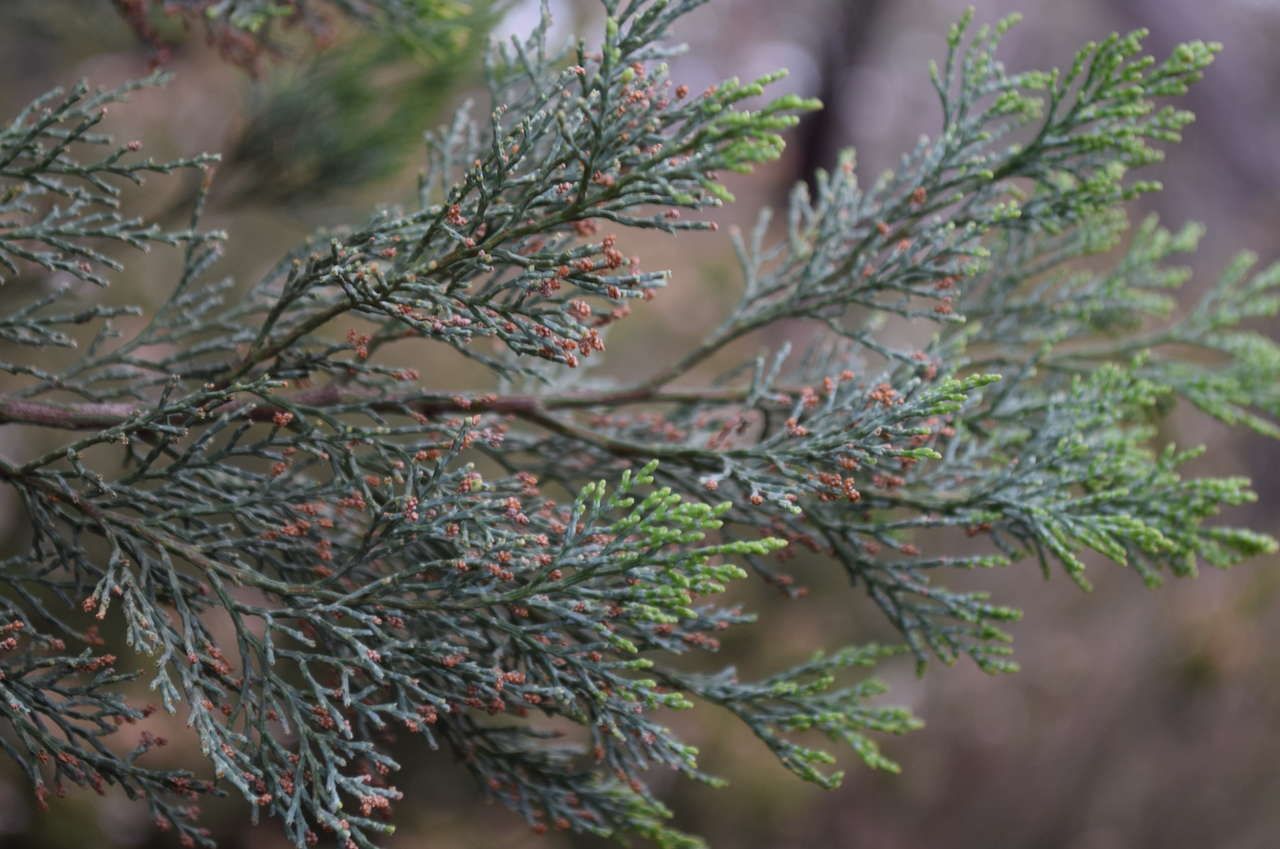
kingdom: Plantae
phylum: Tracheophyta
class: Pinopsida
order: Pinales
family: Cupressaceae
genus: Callitris
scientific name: Callitris rhomboidea
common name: Illawara mountain pine
